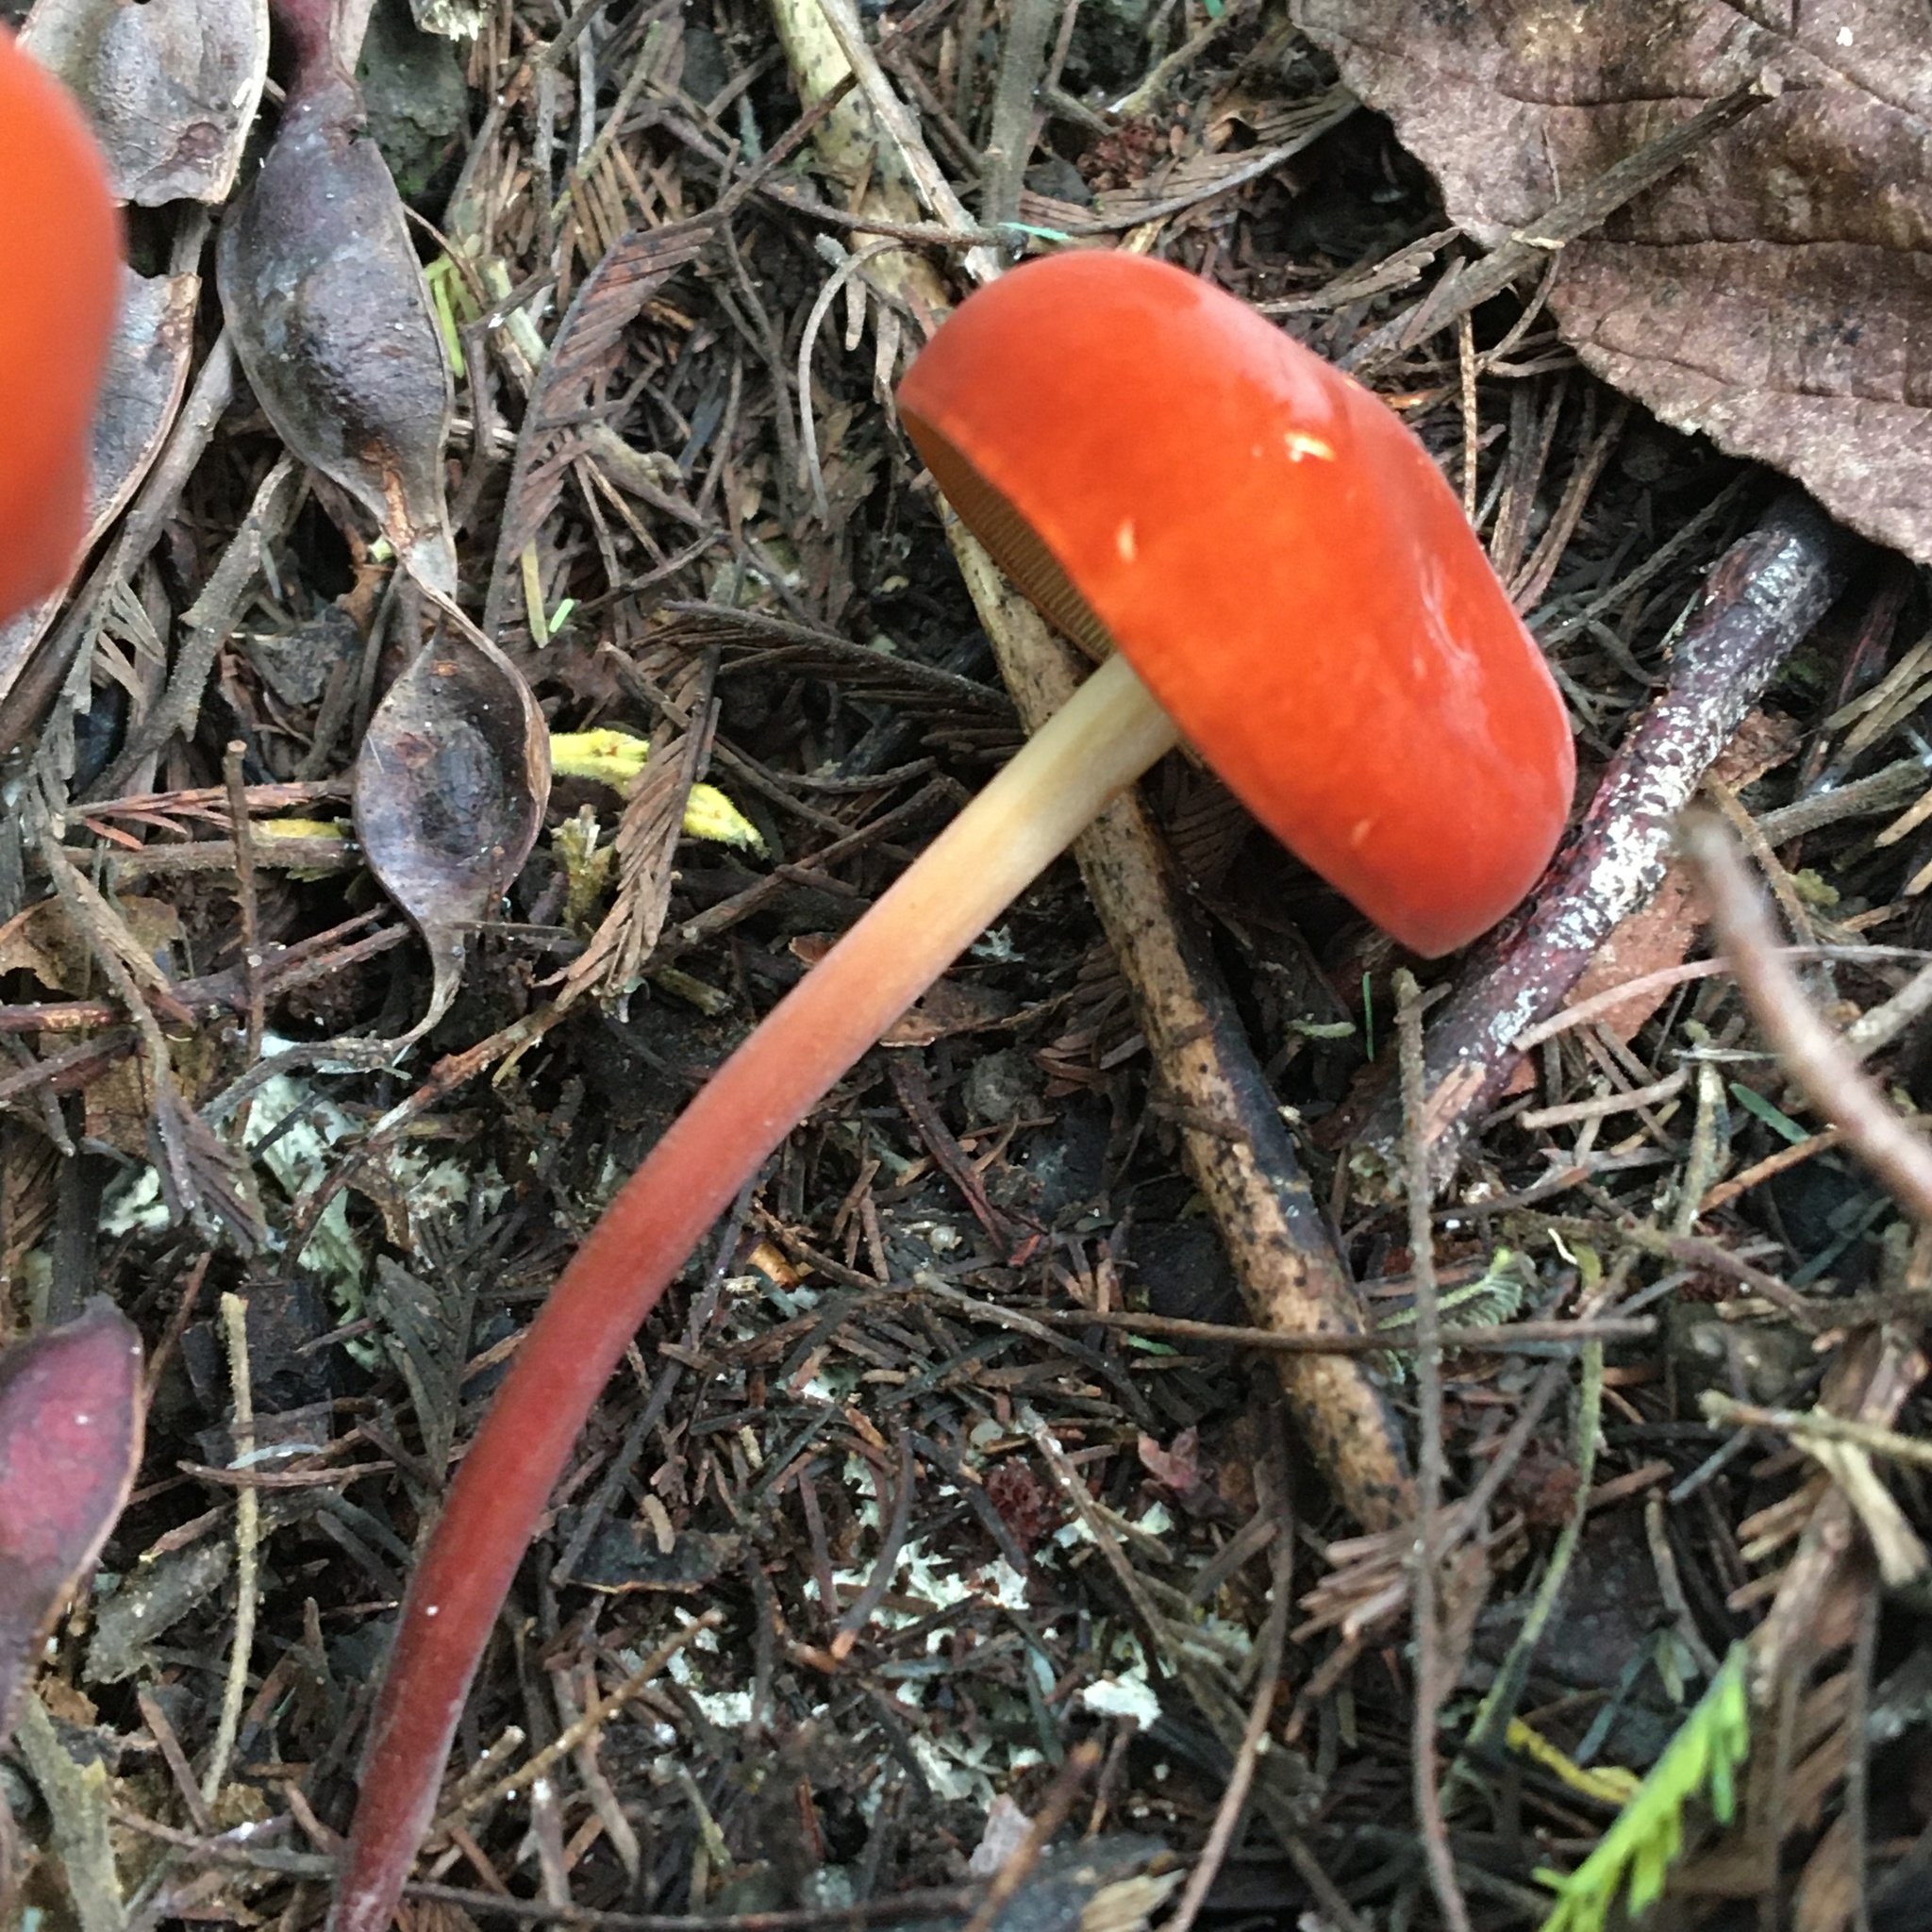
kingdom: Fungi
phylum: Basidiomycota
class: Agaricomycetes
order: Agaricales
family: Marasmiaceae
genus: Marasmius
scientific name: Marasmius elegans
